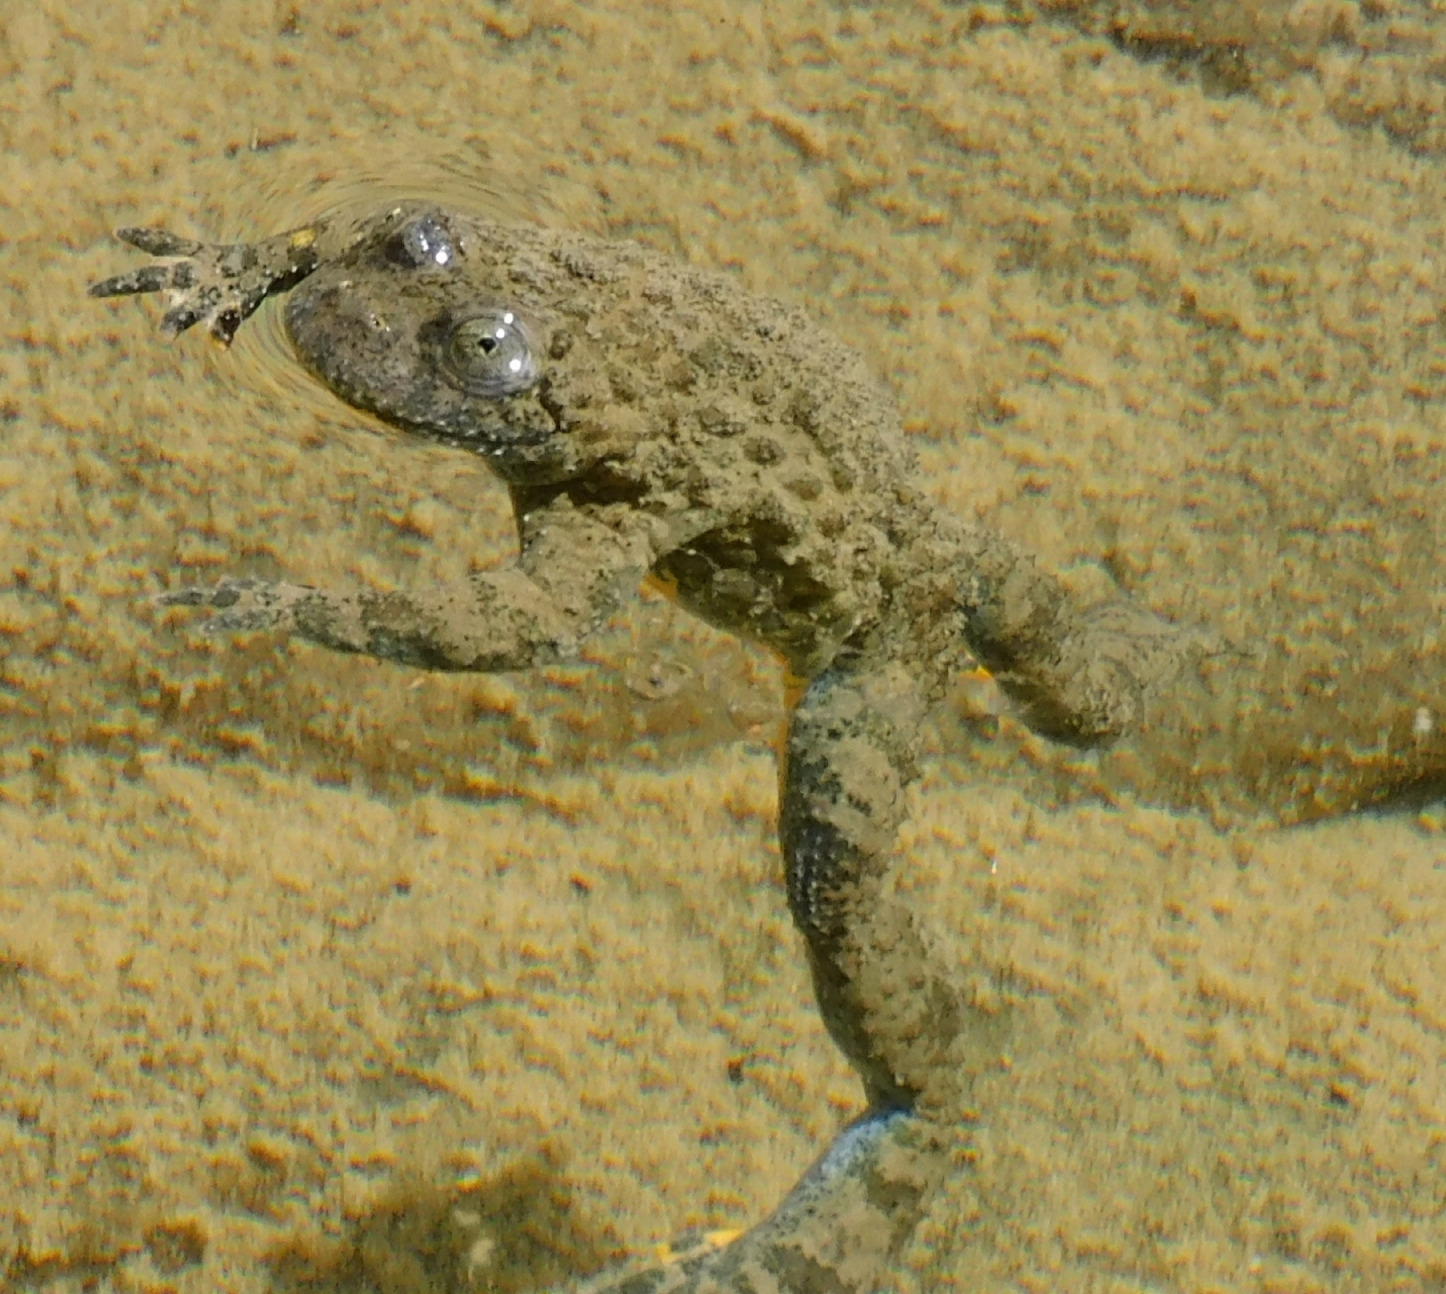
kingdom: Animalia
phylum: Chordata
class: Amphibia
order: Anura
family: Bombinatoridae
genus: Bombina
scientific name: Bombina variegata
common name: Yellow-bellied toad
